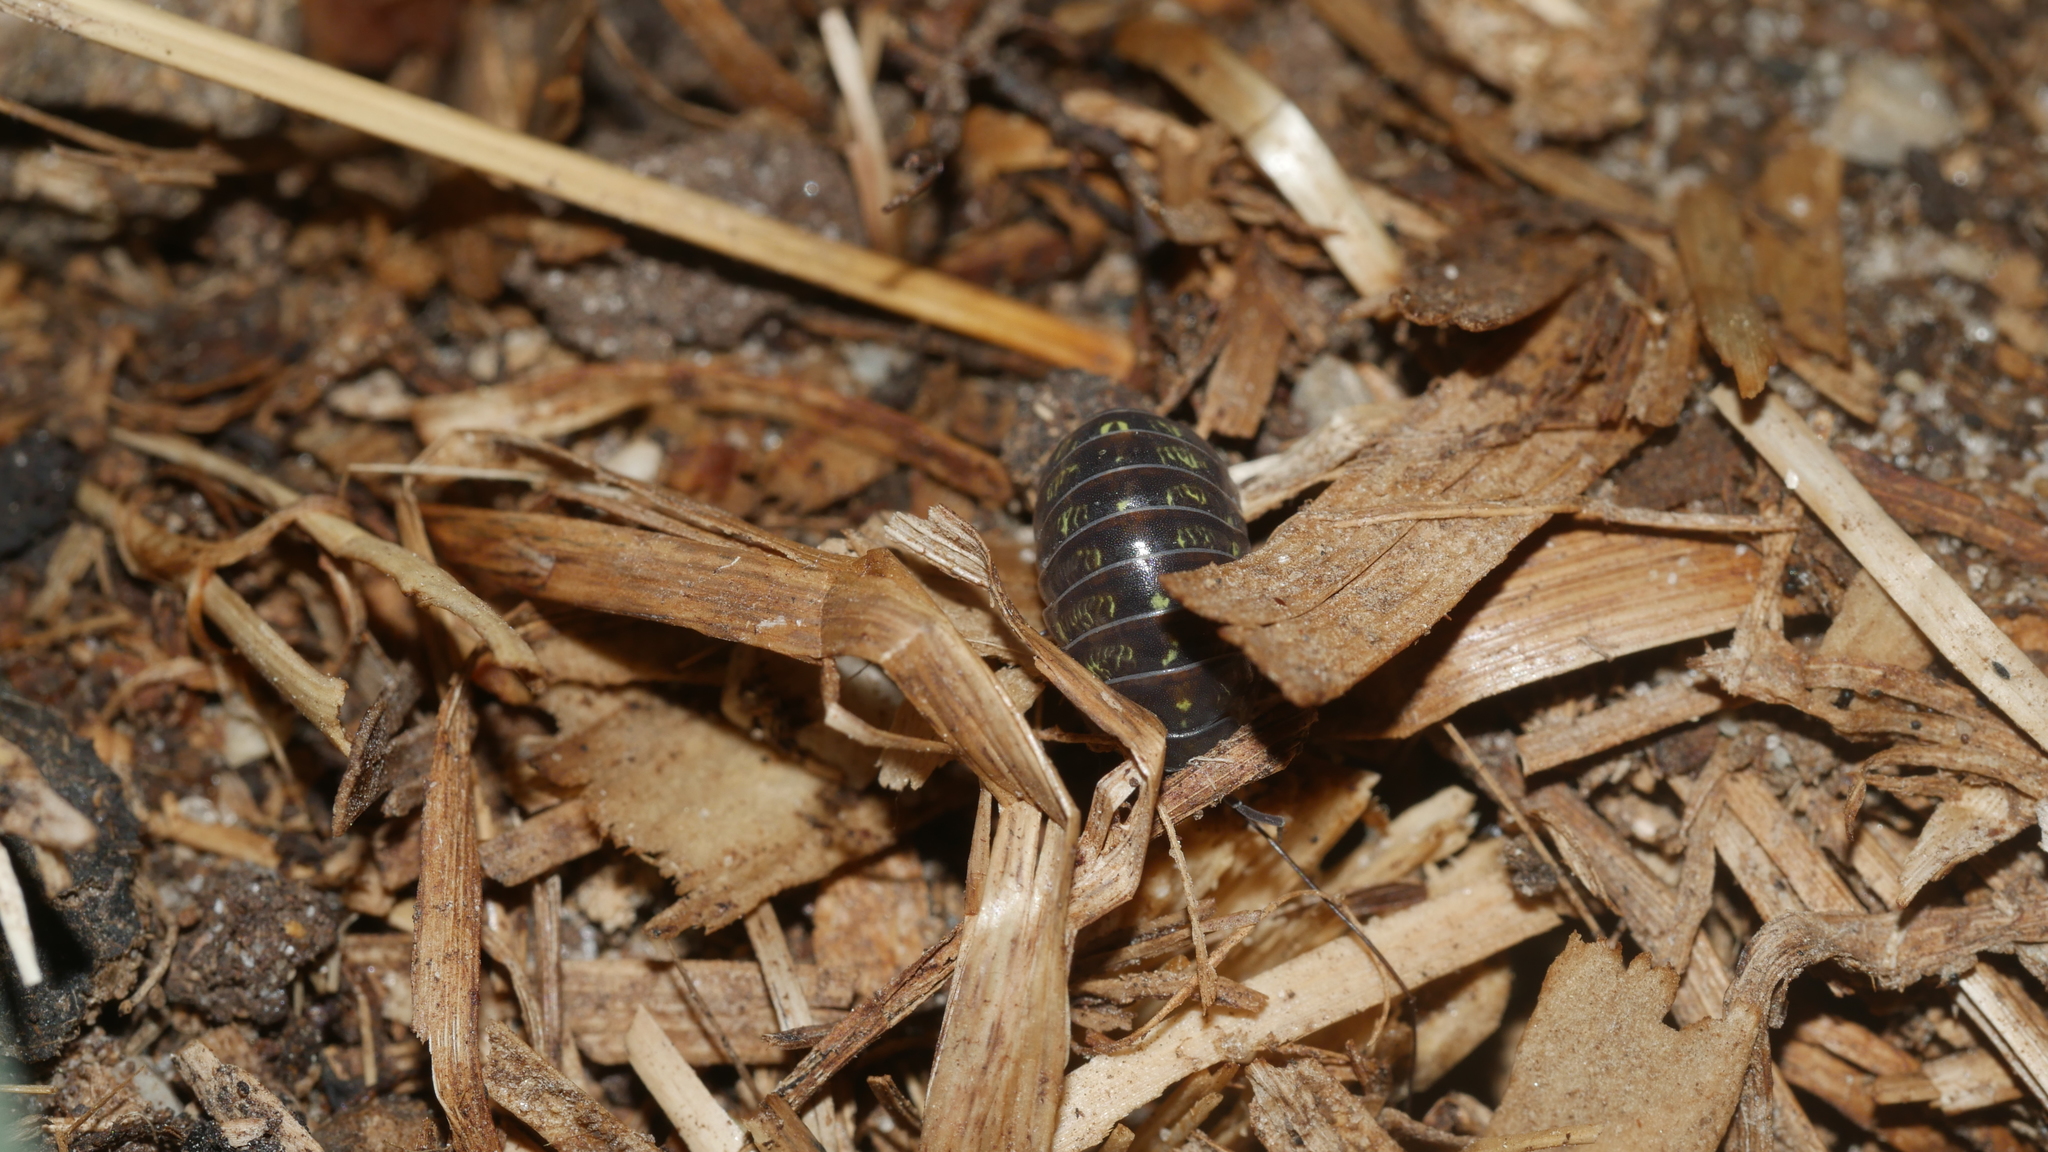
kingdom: Animalia
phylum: Arthropoda
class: Malacostraca
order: Isopoda
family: Armadillidiidae
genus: Armadillidium
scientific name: Armadillidium vulgare
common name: Common pill woodlouse
